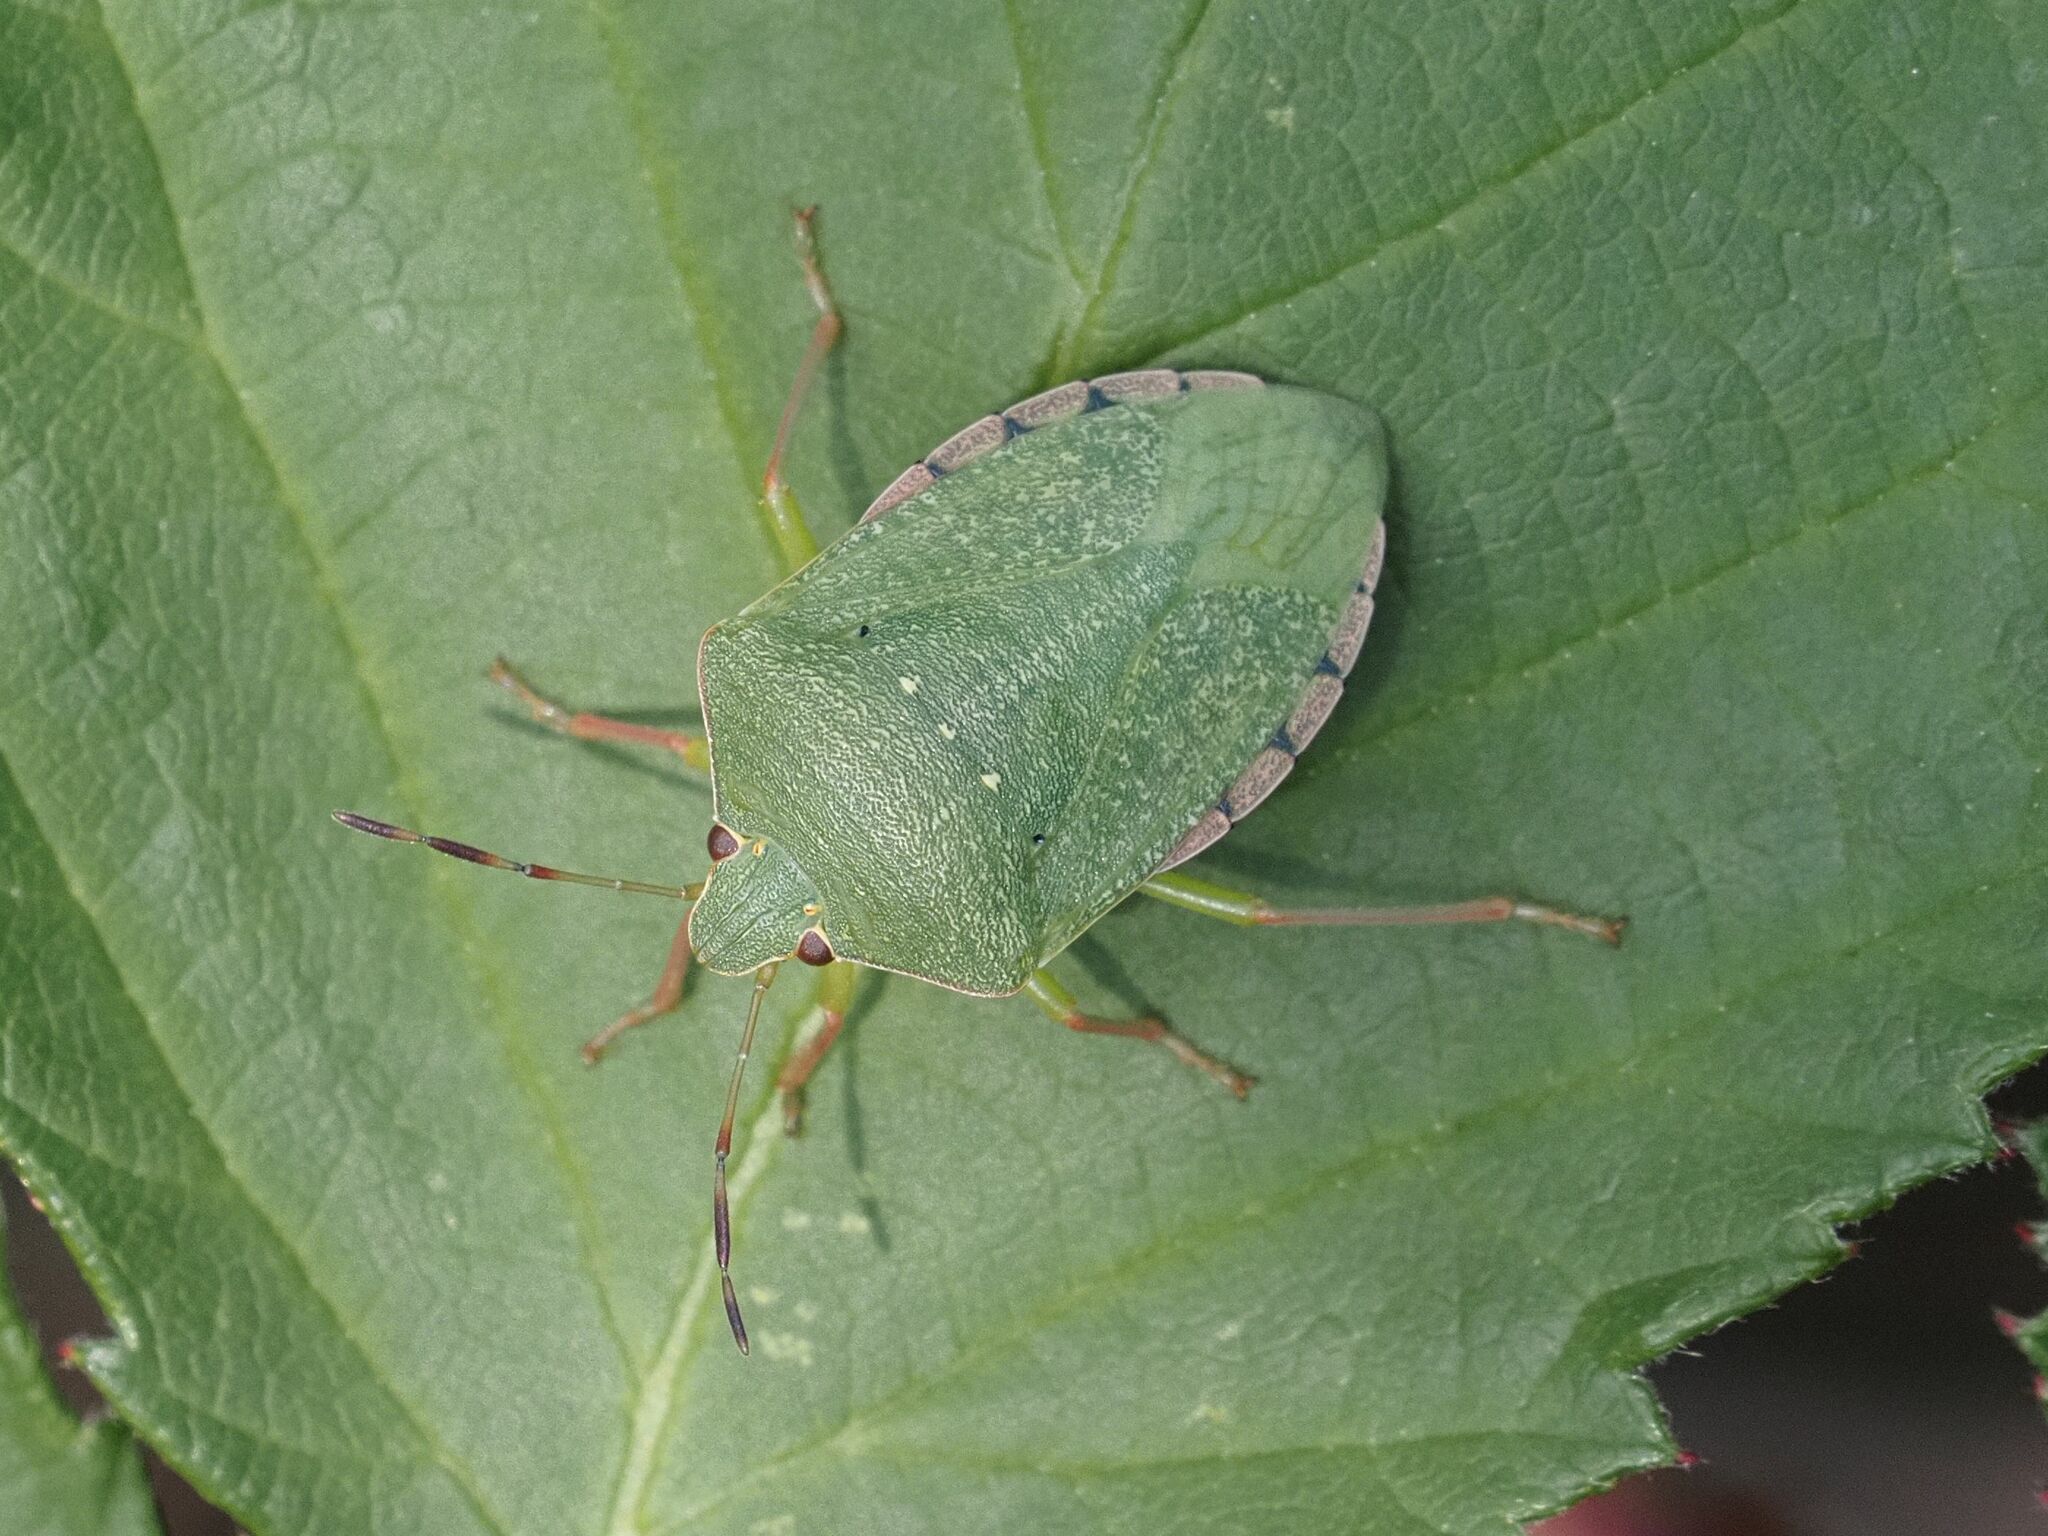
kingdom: Animalia
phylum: Arthropoda
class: Insecta
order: Hemiptera
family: Pentatomidae
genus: Nezara
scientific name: Nezara viridula
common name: Southern green stink bug
